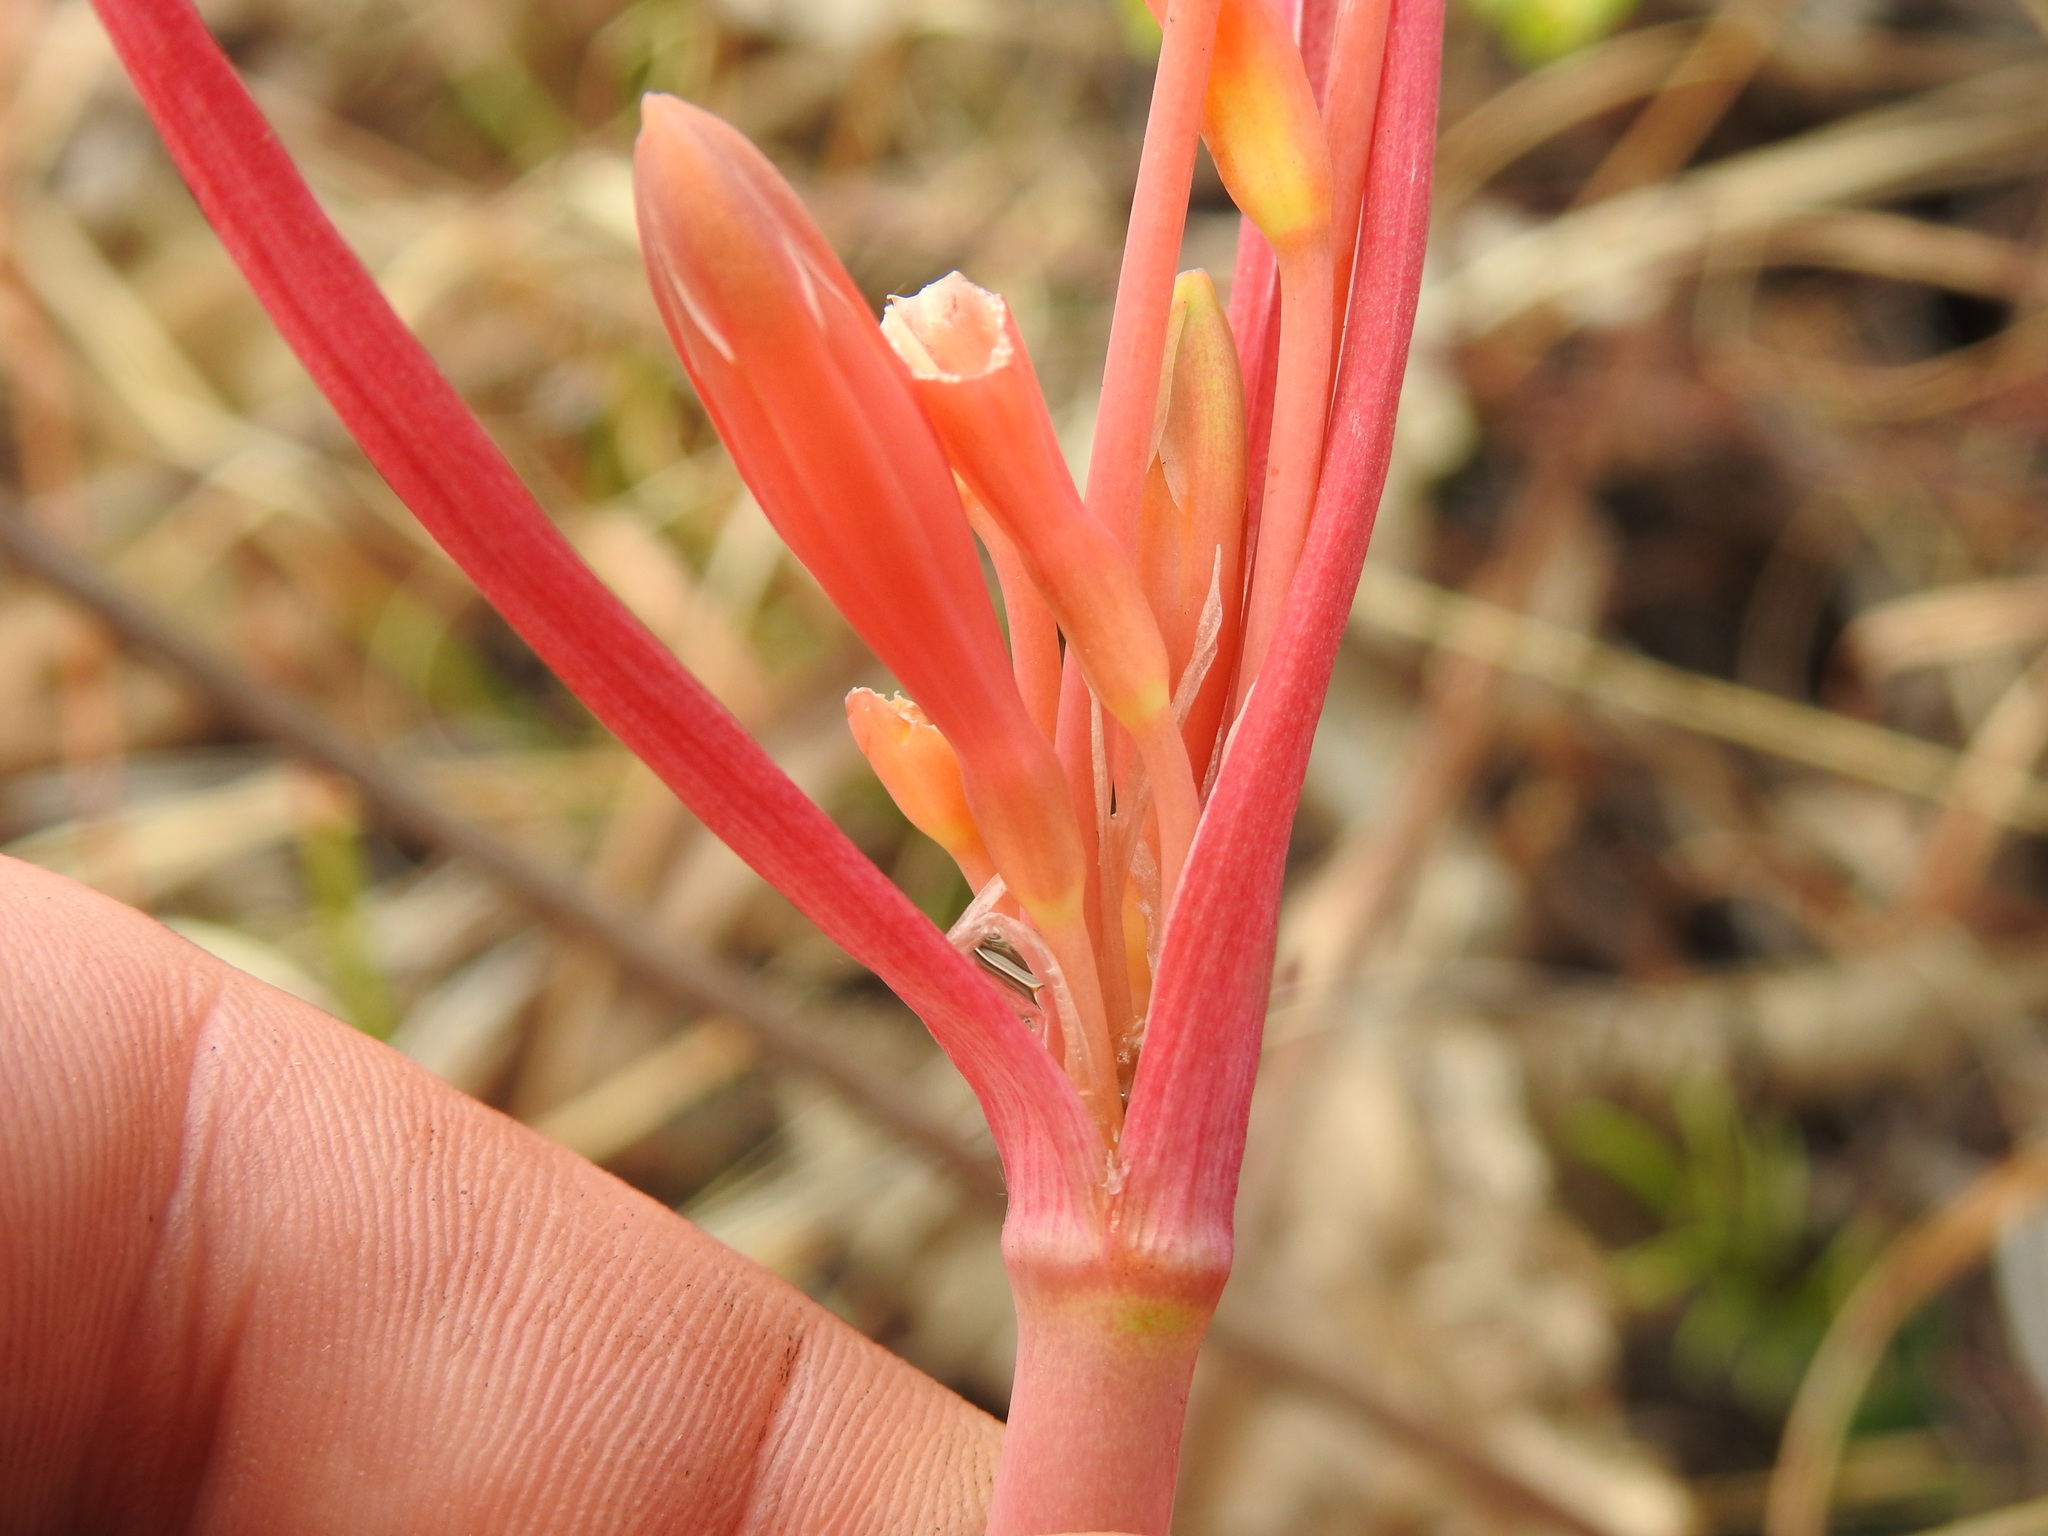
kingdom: Plantae
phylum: Tracheophyta
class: Liliopsida
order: Asparagales
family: Amaryllidaceae
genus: Cyrtanthus
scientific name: Cyrtanthus tuckii
